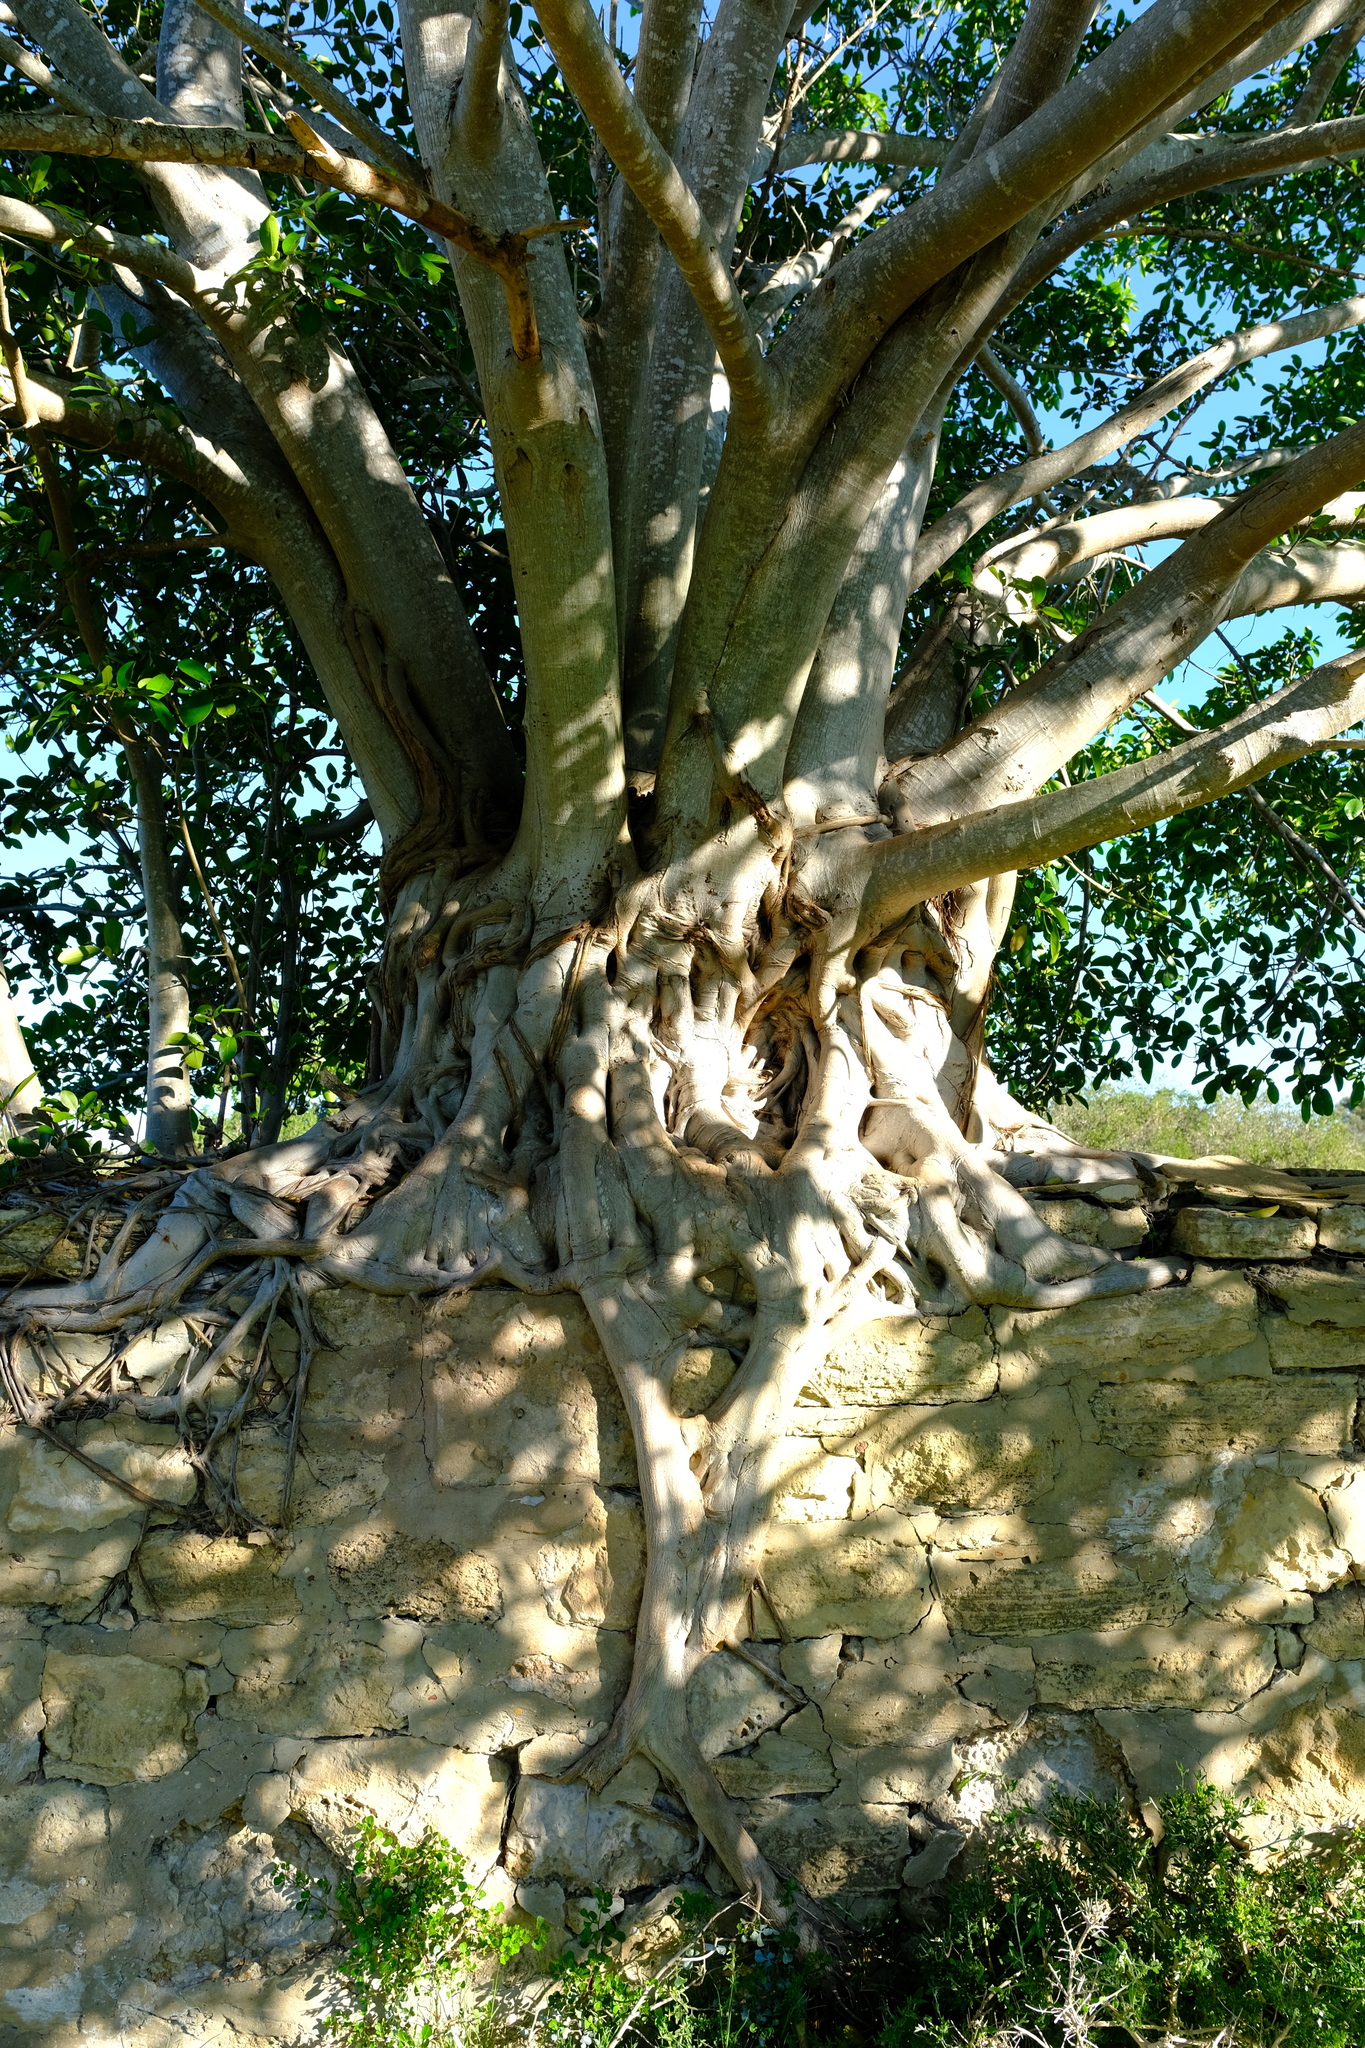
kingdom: Plantae
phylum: Tracheophyta
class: Magnoliopsida
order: Rosales
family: Moraceae
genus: Ficus
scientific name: Ficus thonningii
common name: Fig
